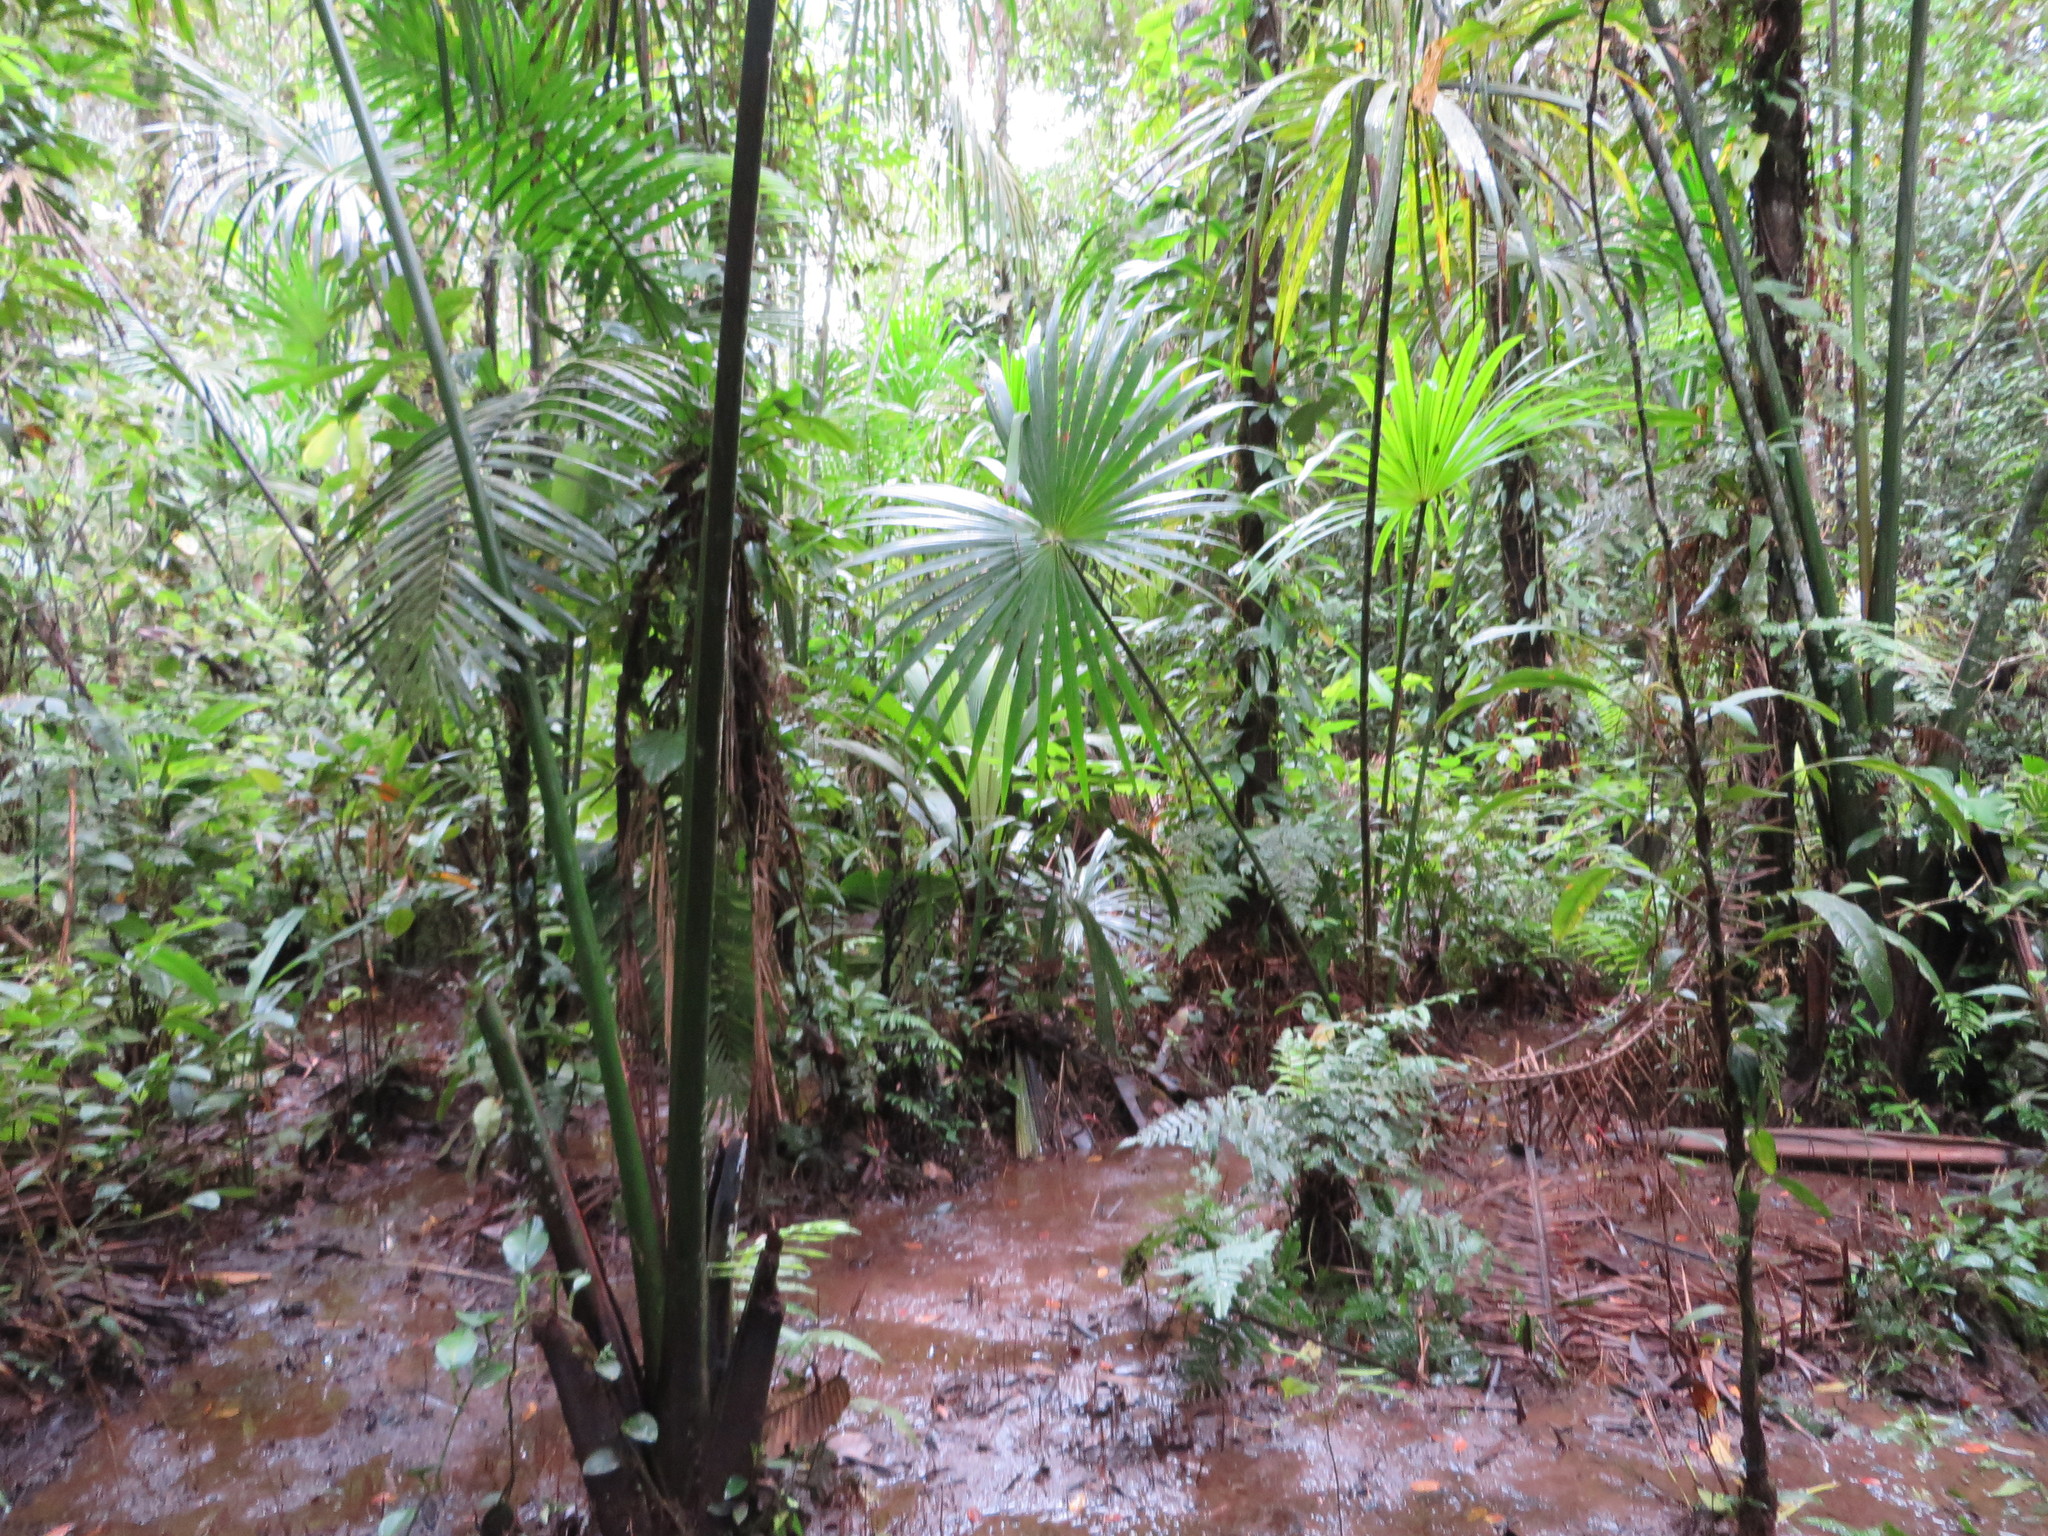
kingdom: Plantae
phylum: Tracheophyta
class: Liliopsida
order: Arecales
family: Arecaceae
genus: Mauritia
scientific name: Mauritia flexuosa
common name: Tree-of-life
